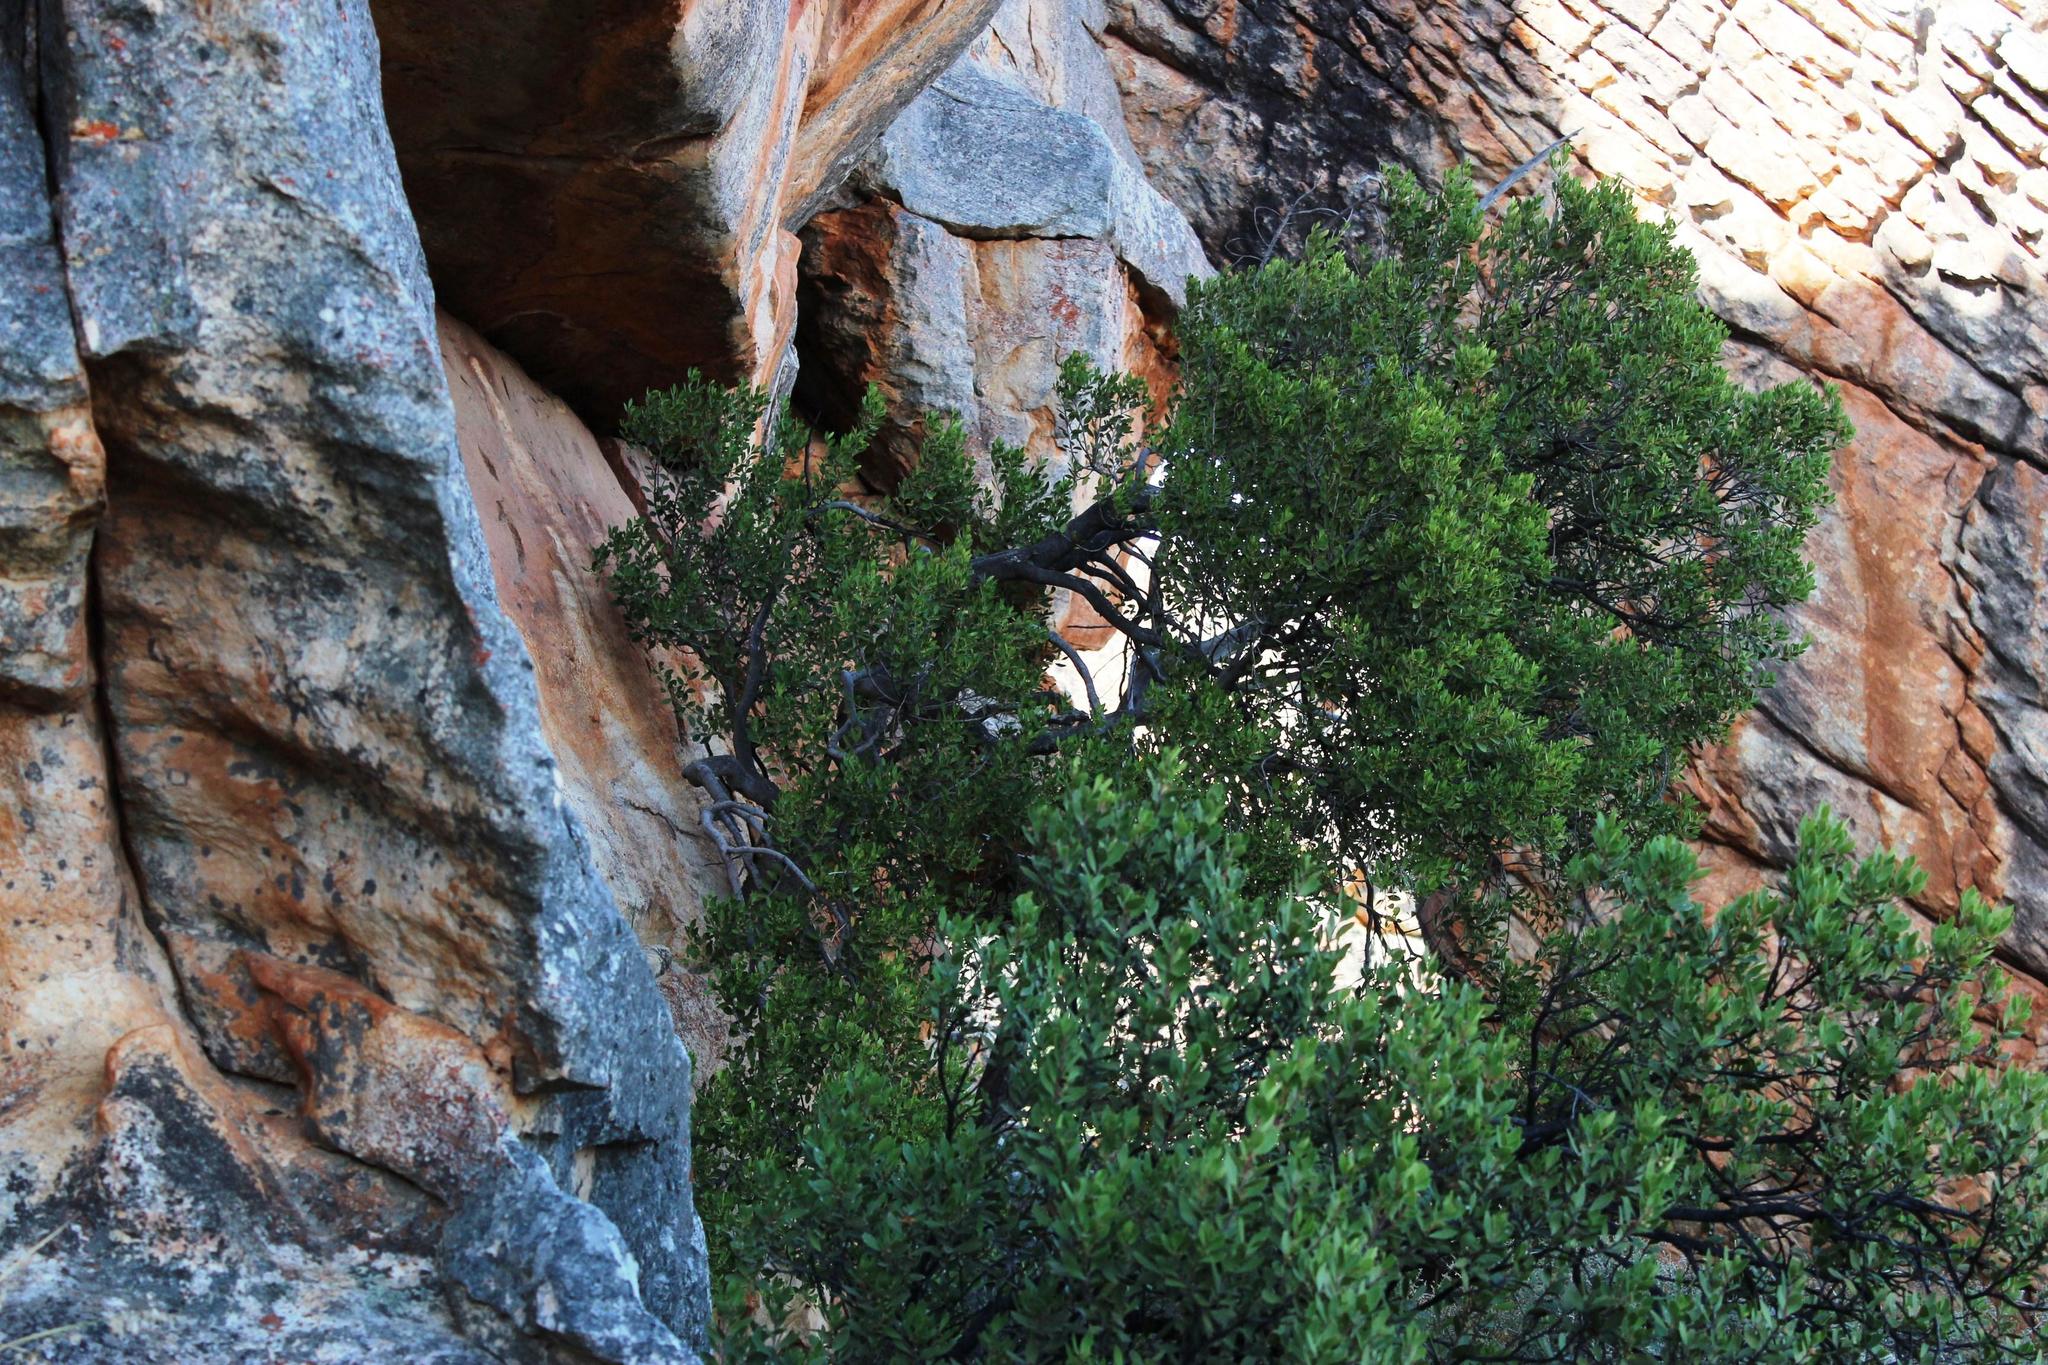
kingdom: Plantae
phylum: Tracheophyta
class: Magnoliopsida
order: Celastrales
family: Celastraceae
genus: Gymnosporia
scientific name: Gymnosporia laurina
